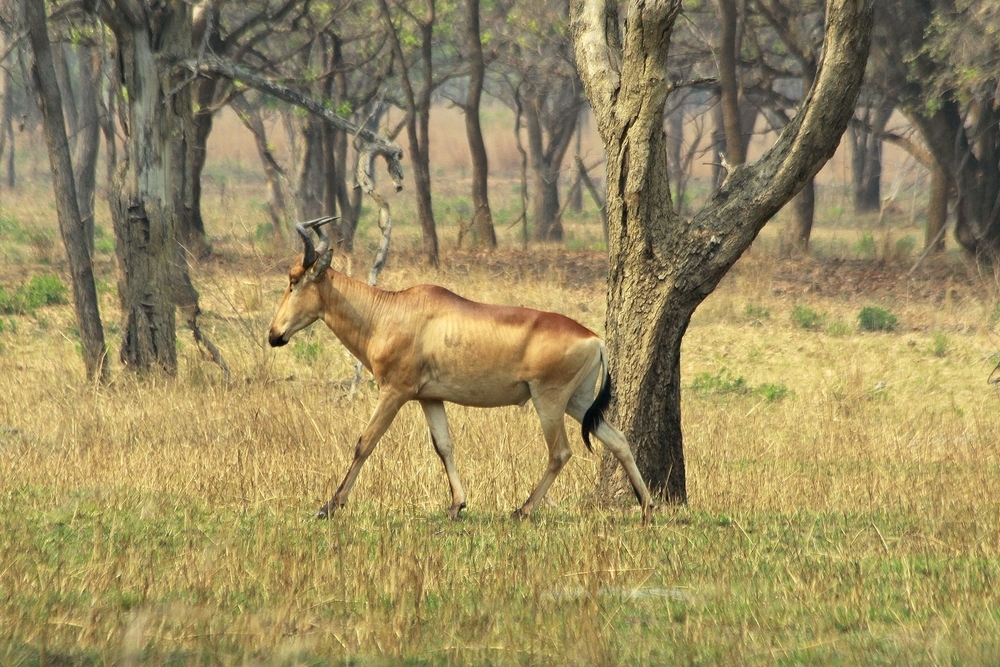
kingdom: Animalia
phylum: Chordata
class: Mammalia
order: Artiodactyla
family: Bovidae
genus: Alcelaphus
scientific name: Alcelaphus buselaphus
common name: Hartebeest
